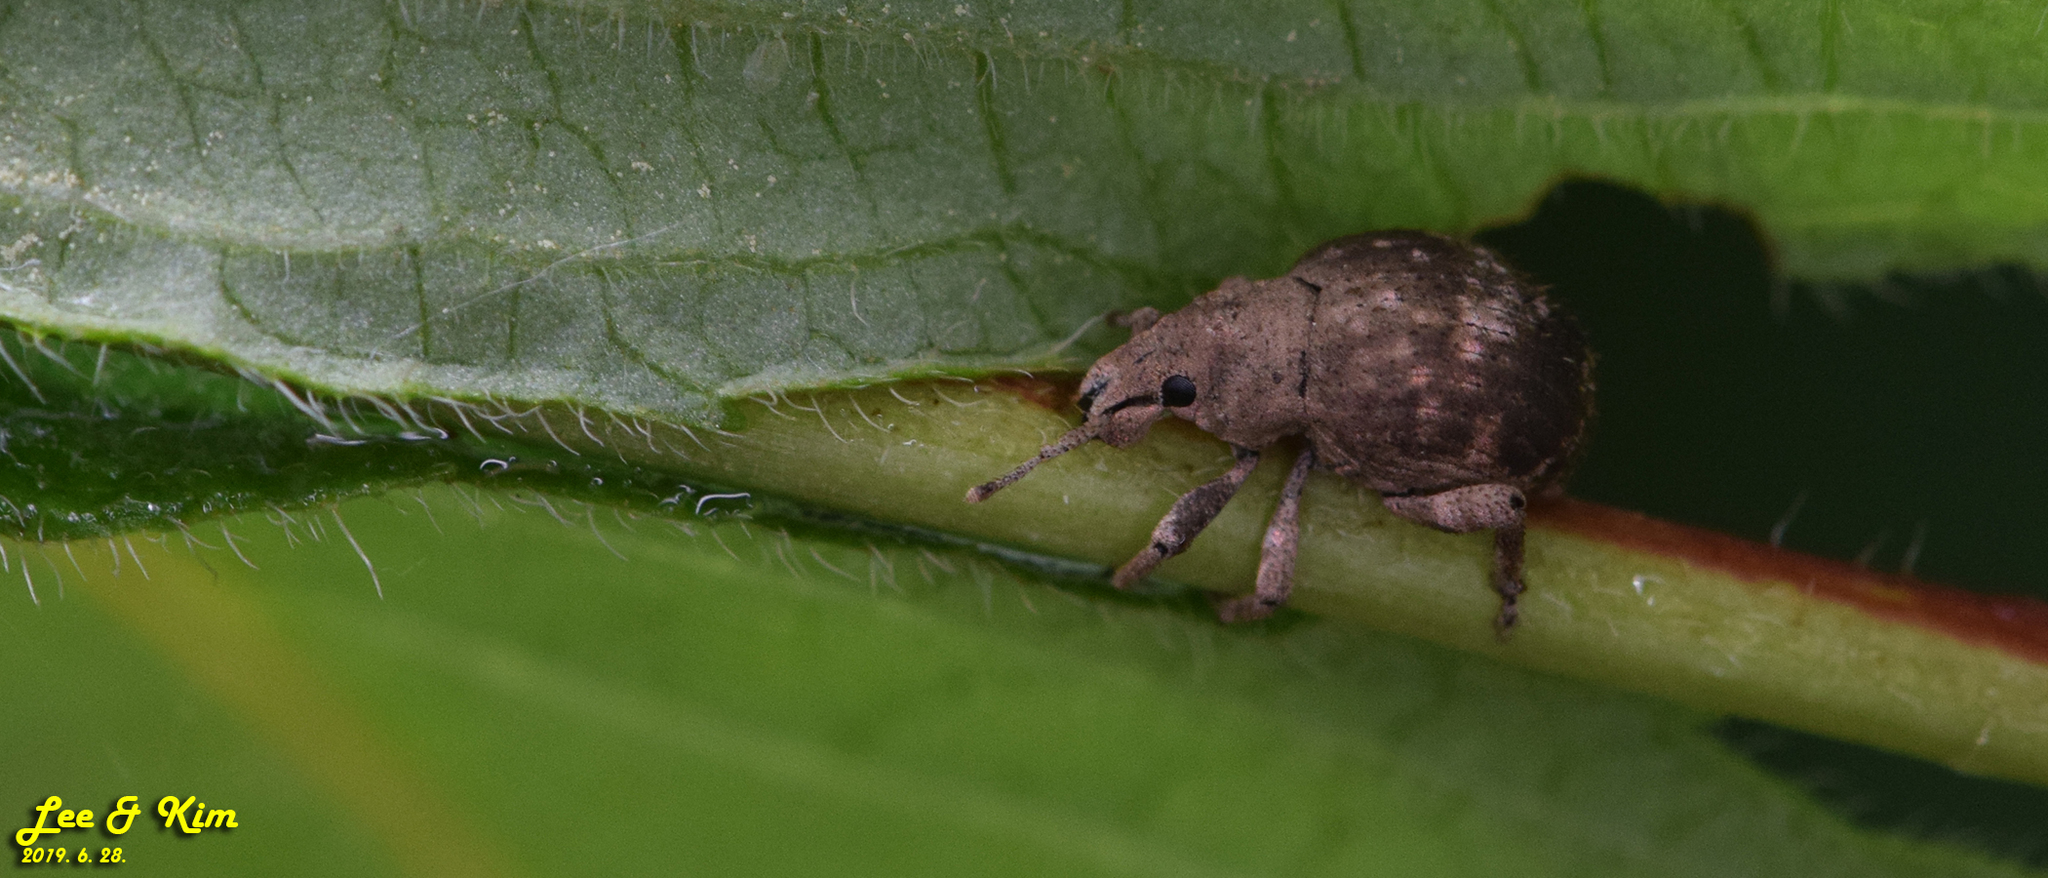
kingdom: Animalia
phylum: Arthropoda
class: Insecta
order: Coleoptera
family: Curculionidae
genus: Pseudocneorhinus
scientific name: Pseudocneorhinus bifasciatus
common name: Two-banded japanese weevil
